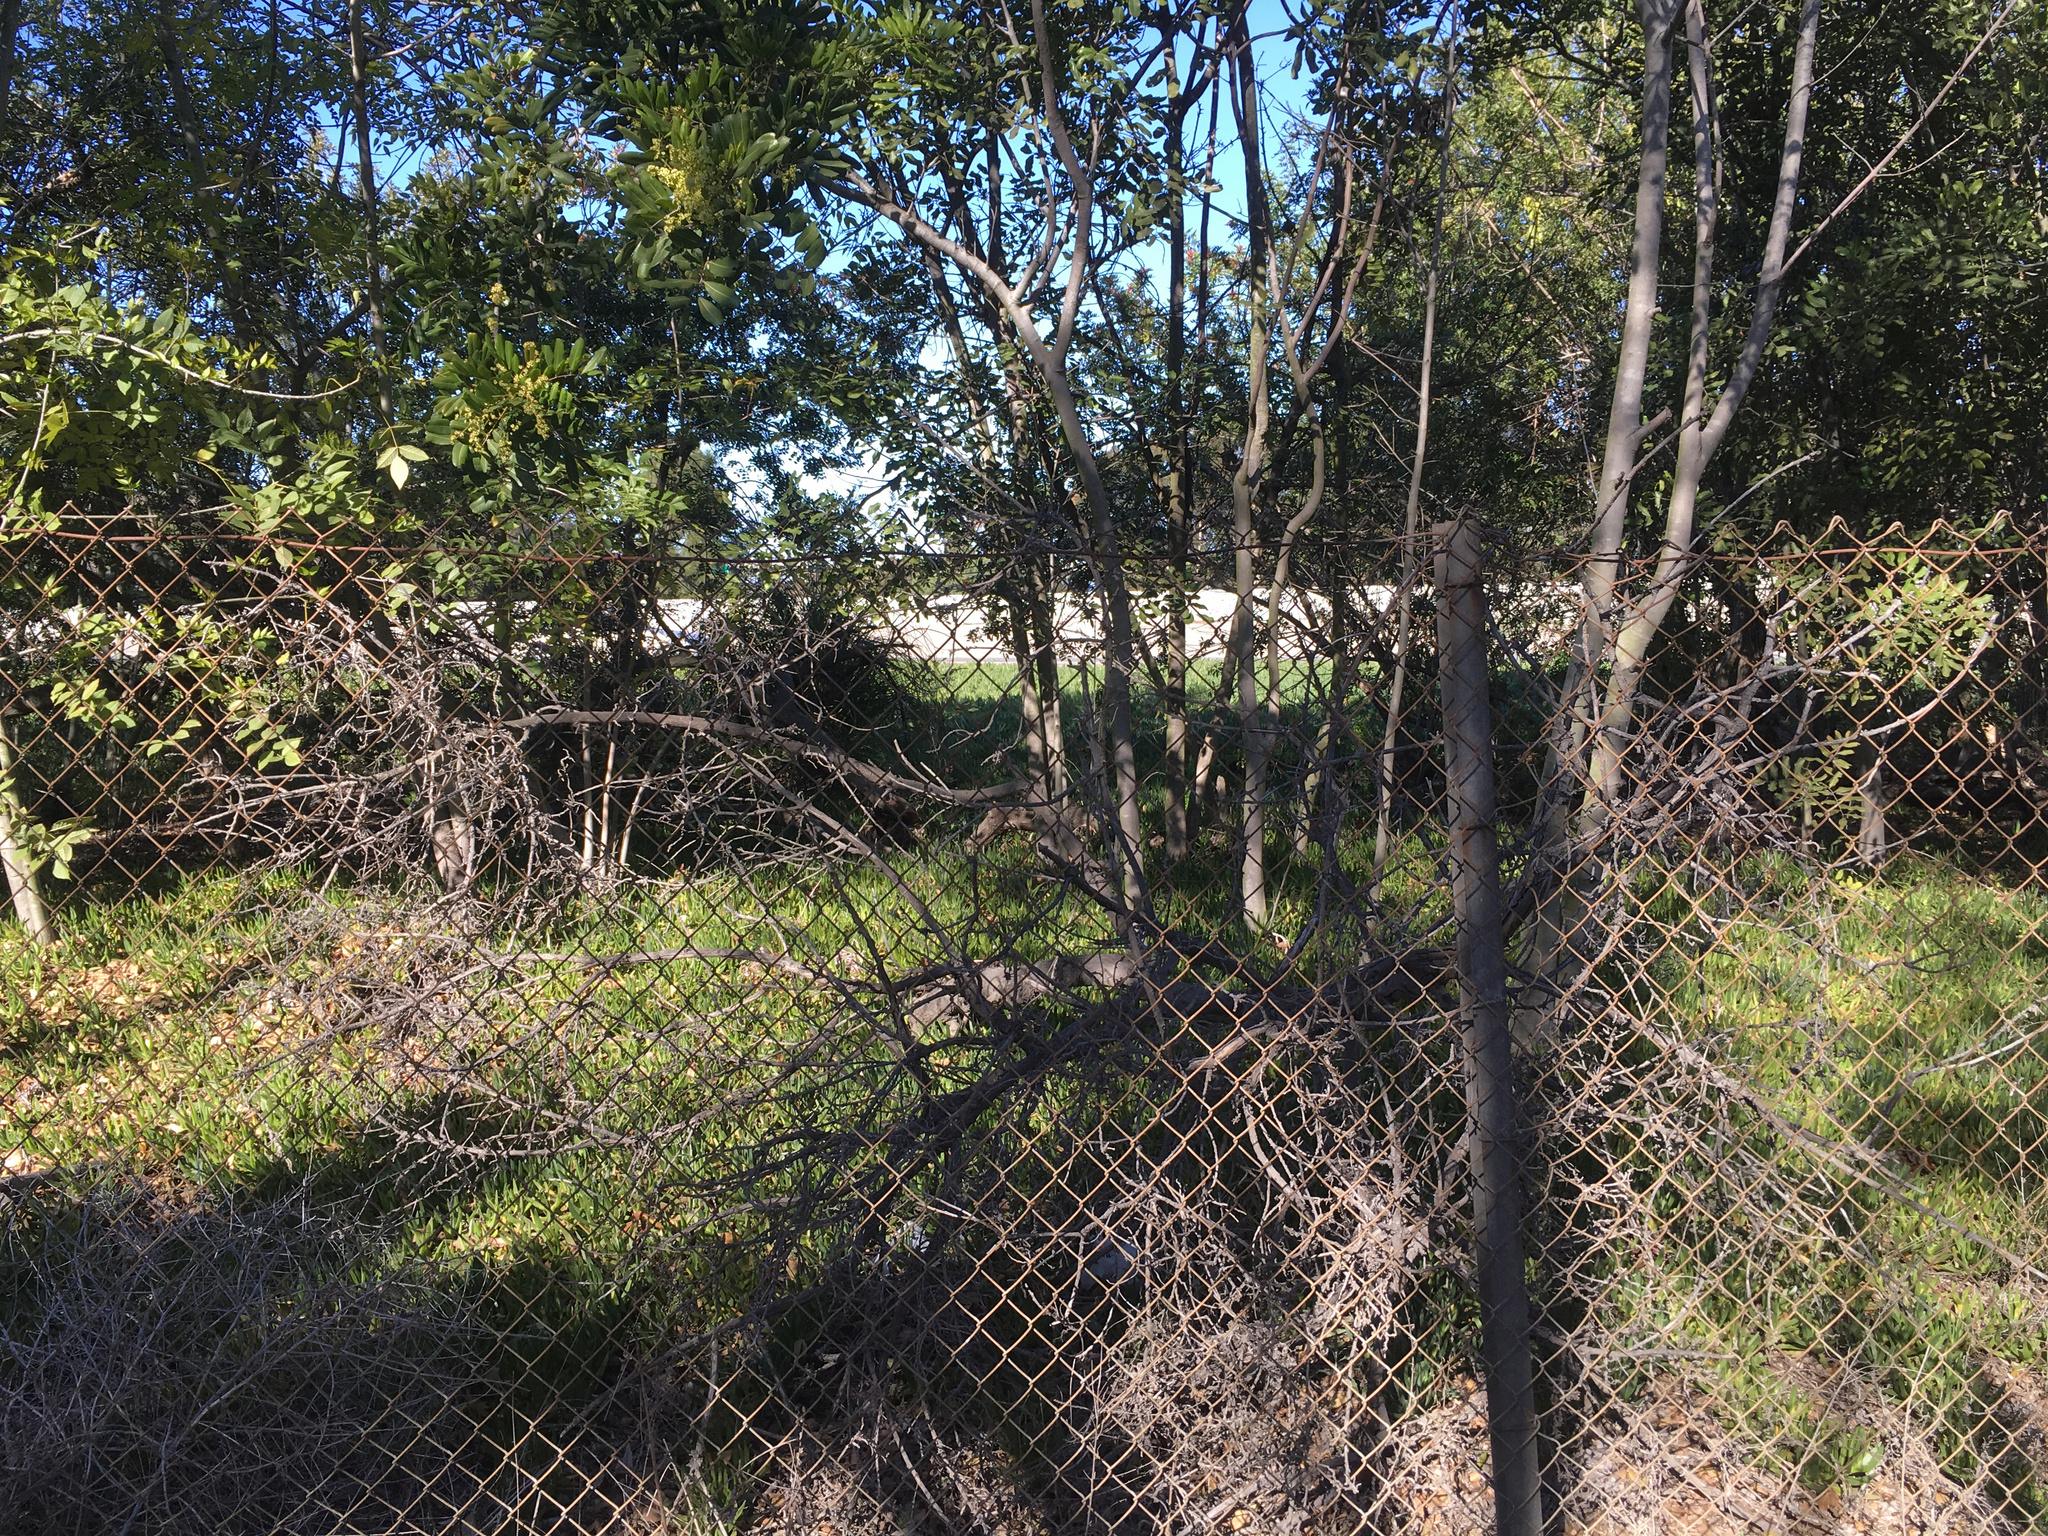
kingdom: Plantae
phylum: Tracheophyta
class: Magnoliopsida
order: Lamiales
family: Scrophulariaceae
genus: Myoporum
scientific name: Myoporum laetum
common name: Ngaio tree
